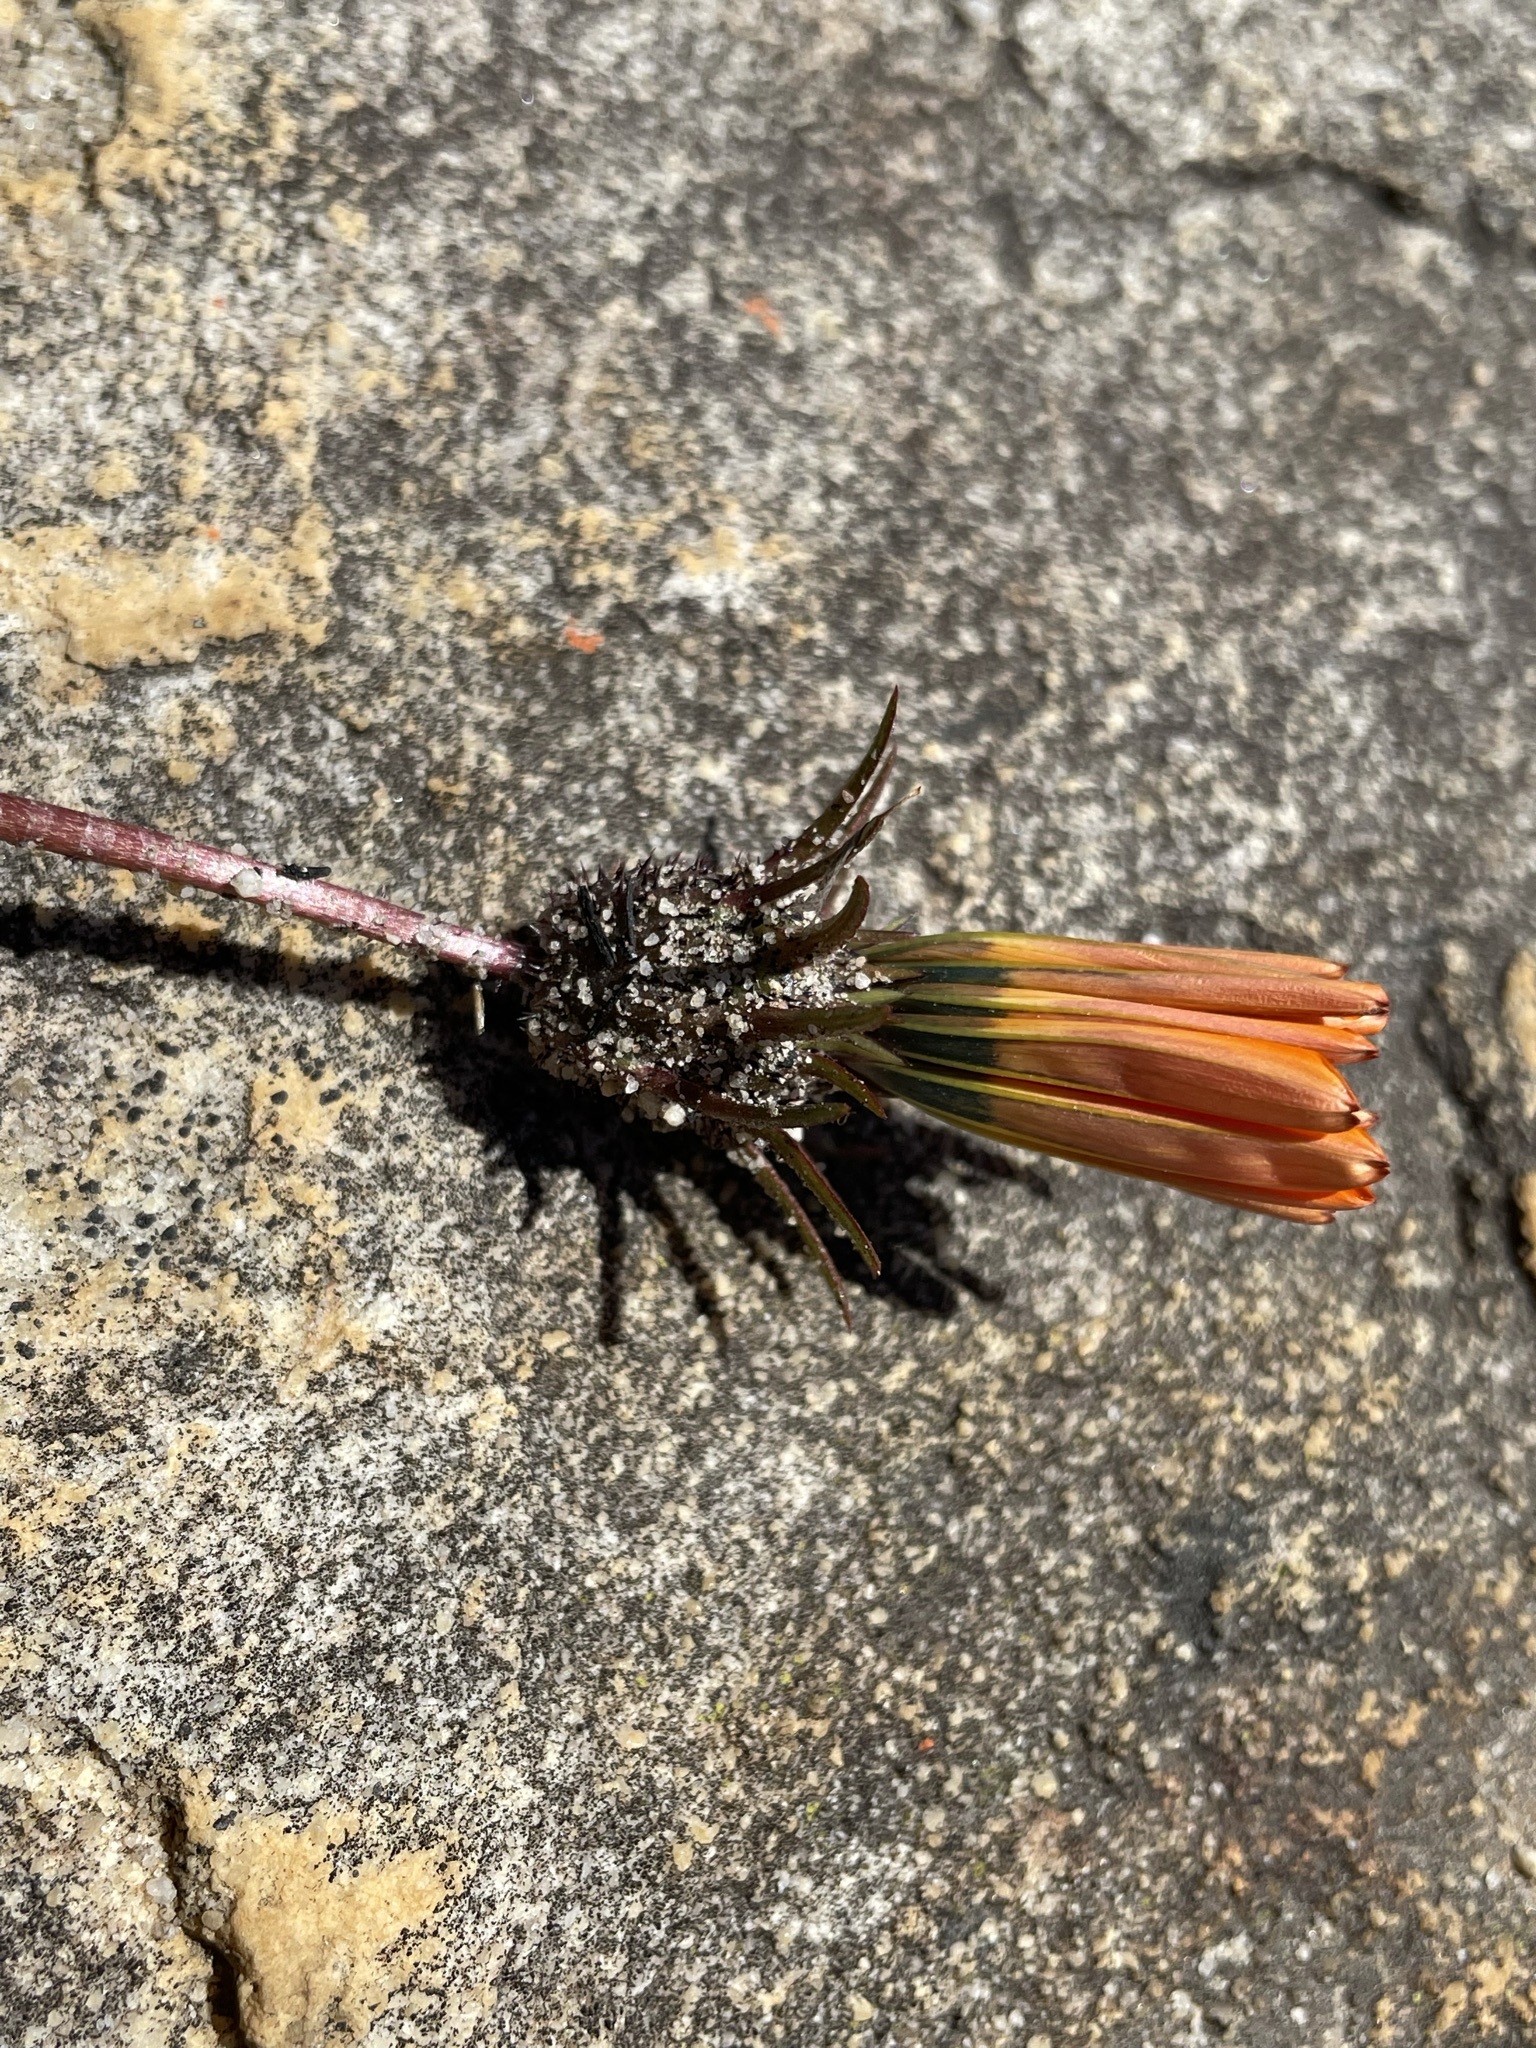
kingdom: Plantae
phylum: Tracheophyta
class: Magnoliopsida
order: Asterales
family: Asteraceae
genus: Gazania
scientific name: Gazania serrata
